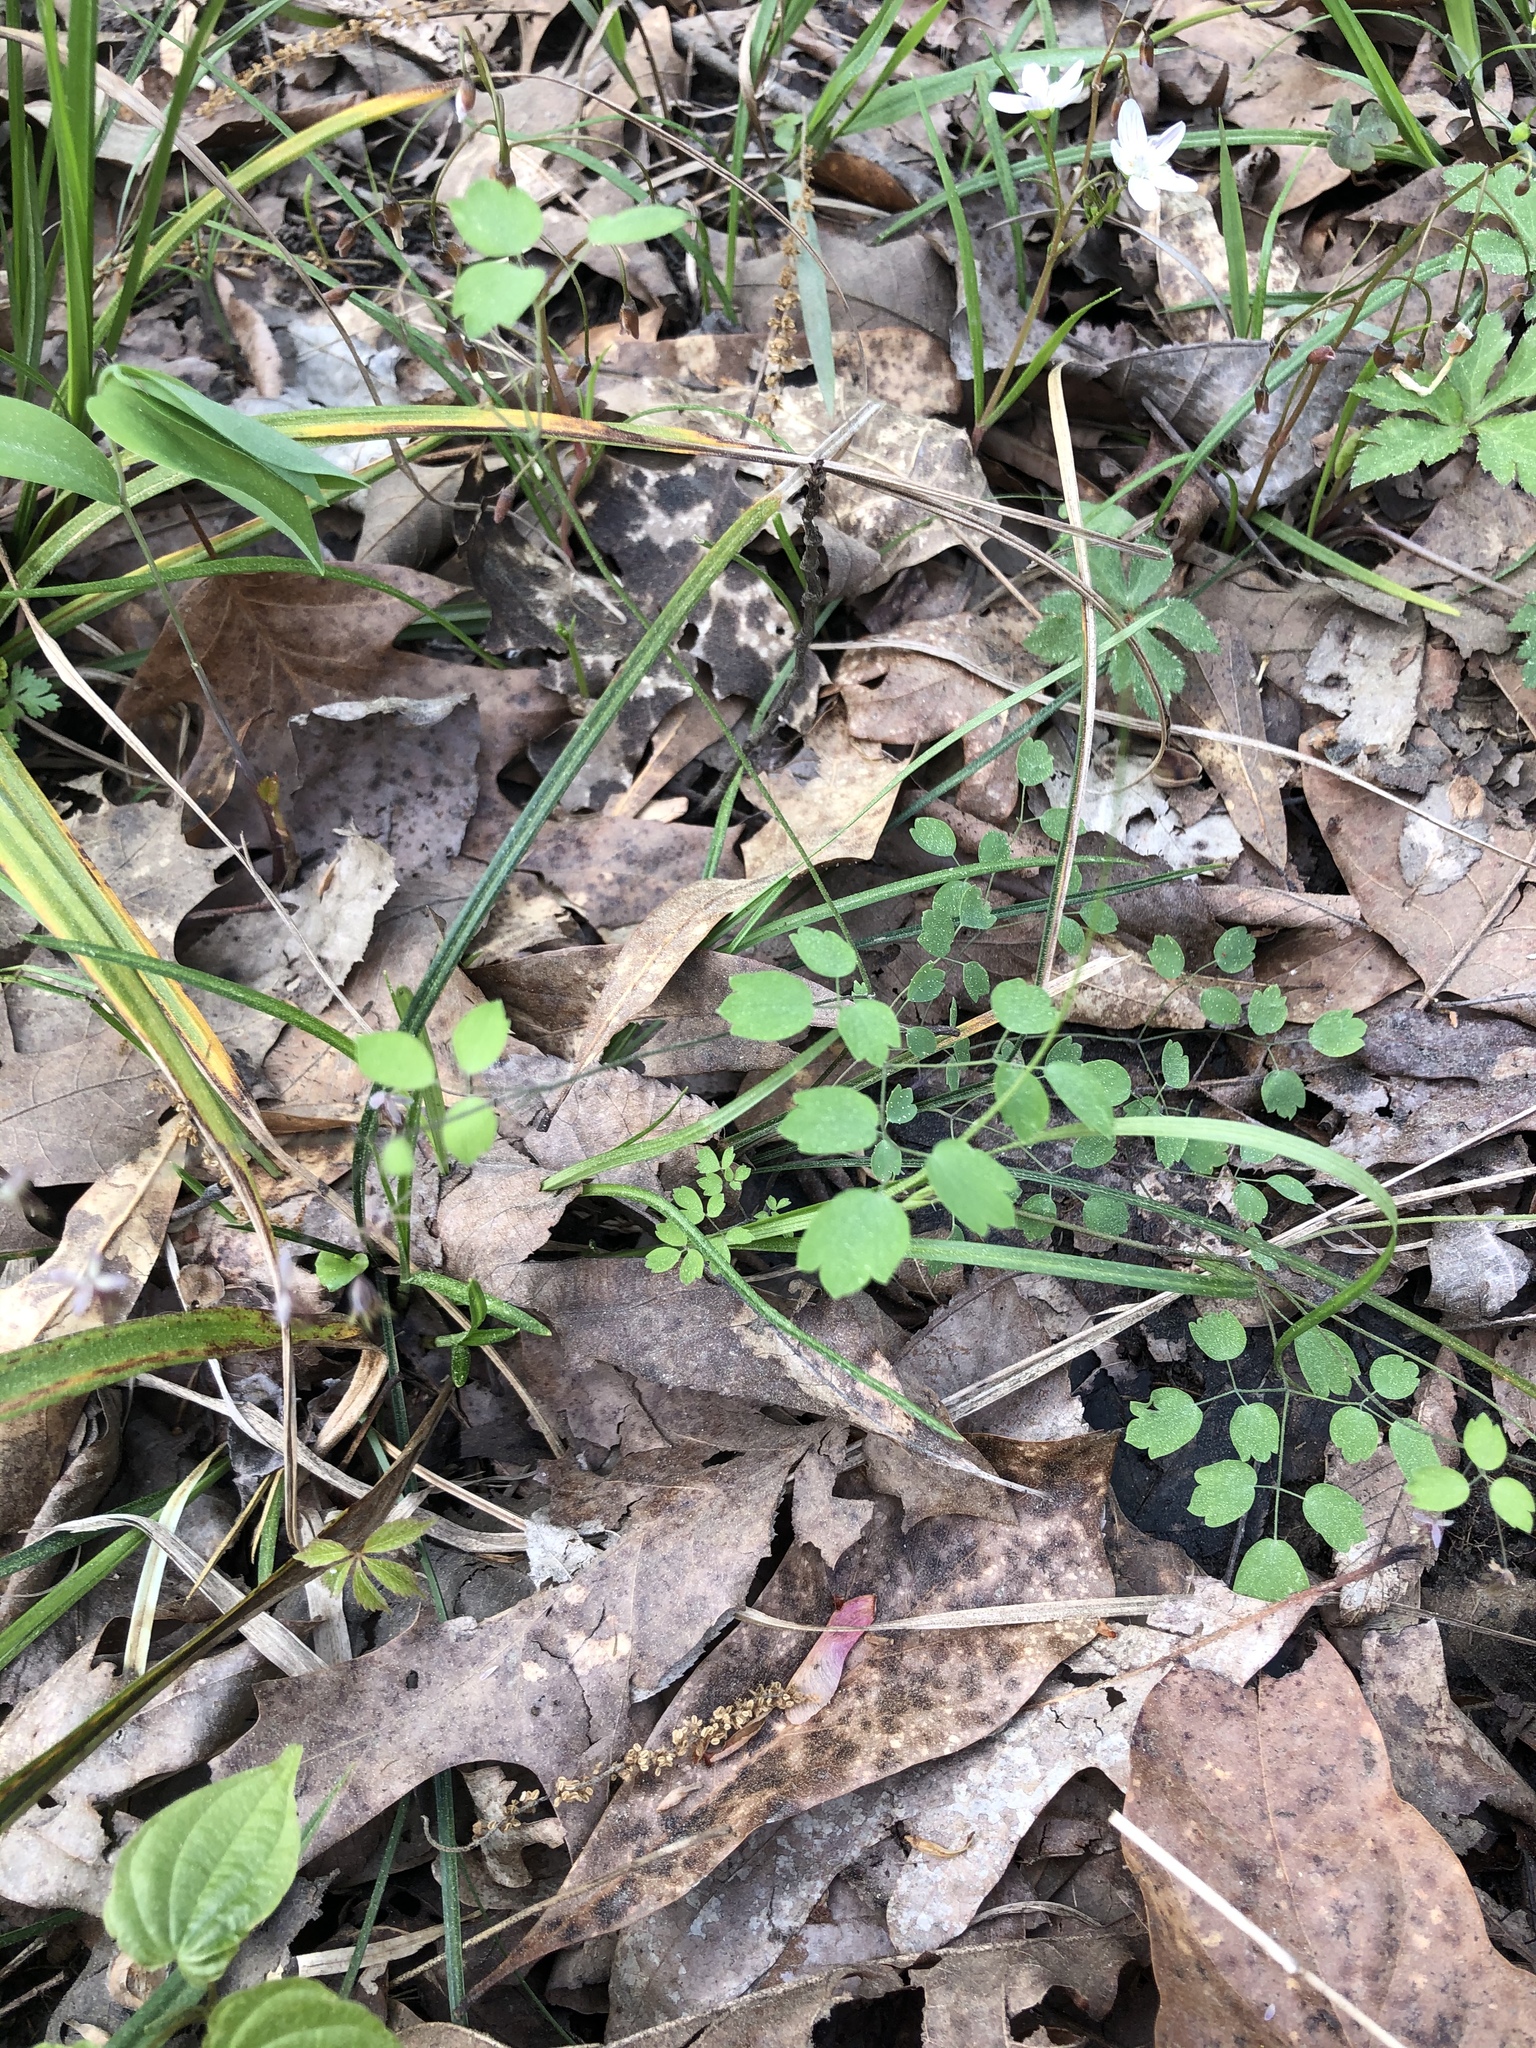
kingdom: Plantae
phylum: Tracheophyta
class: Magnoliopsida
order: Ranunculales
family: Ranunculaceae
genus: Thalictrum
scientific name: Thalictrum debile
